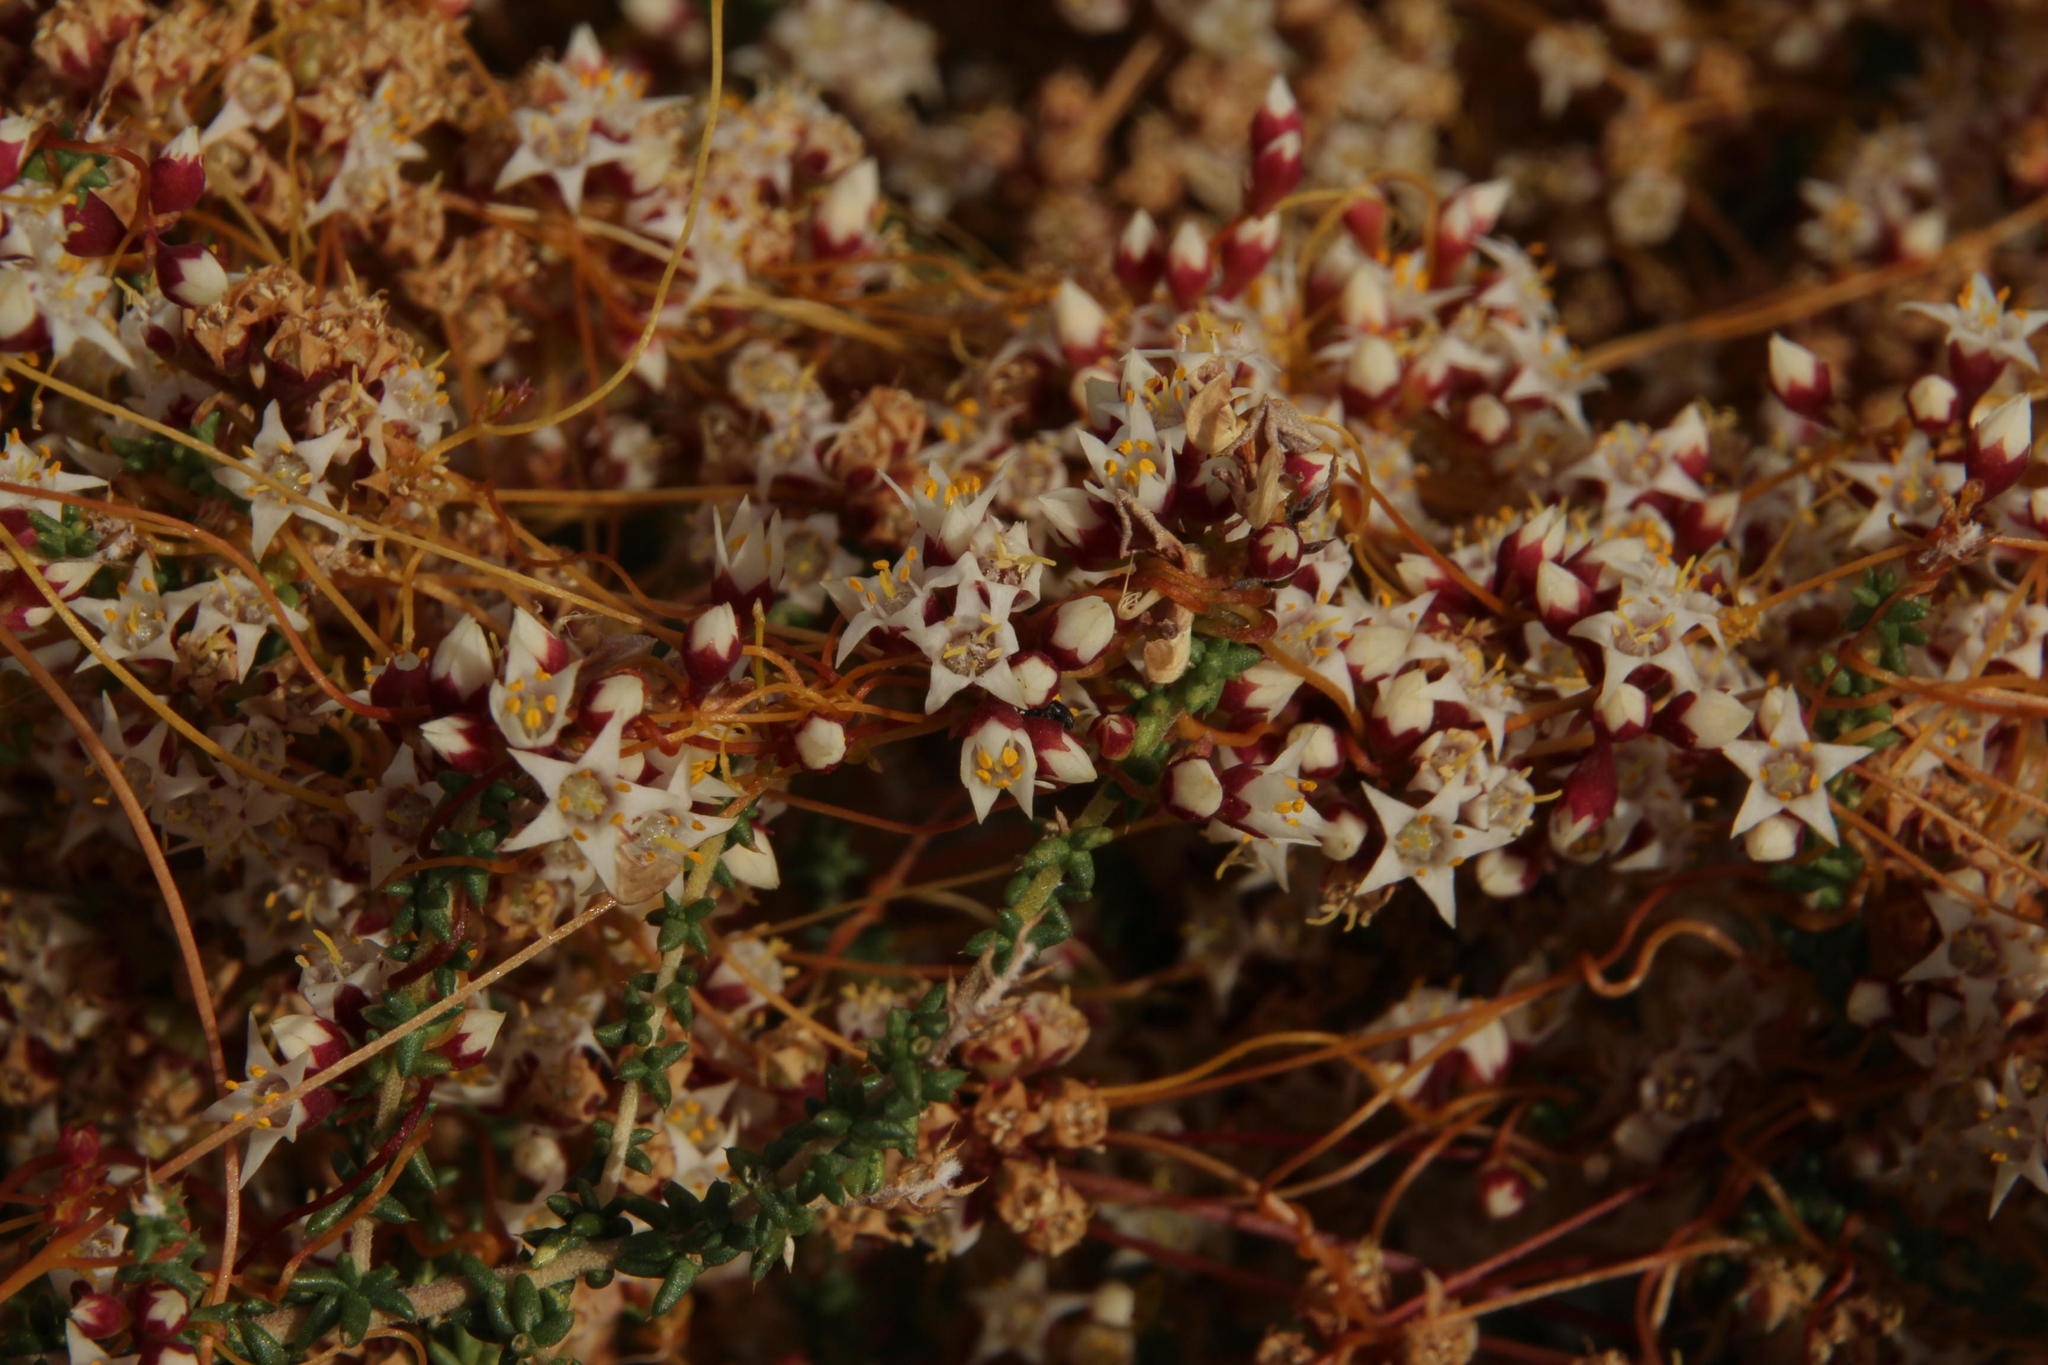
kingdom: Plantae
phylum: Tracheophyta
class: Magnoliopsida
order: Solanales
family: Convolvulaceae
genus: Cuscuta
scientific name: Cuscuta nitida
